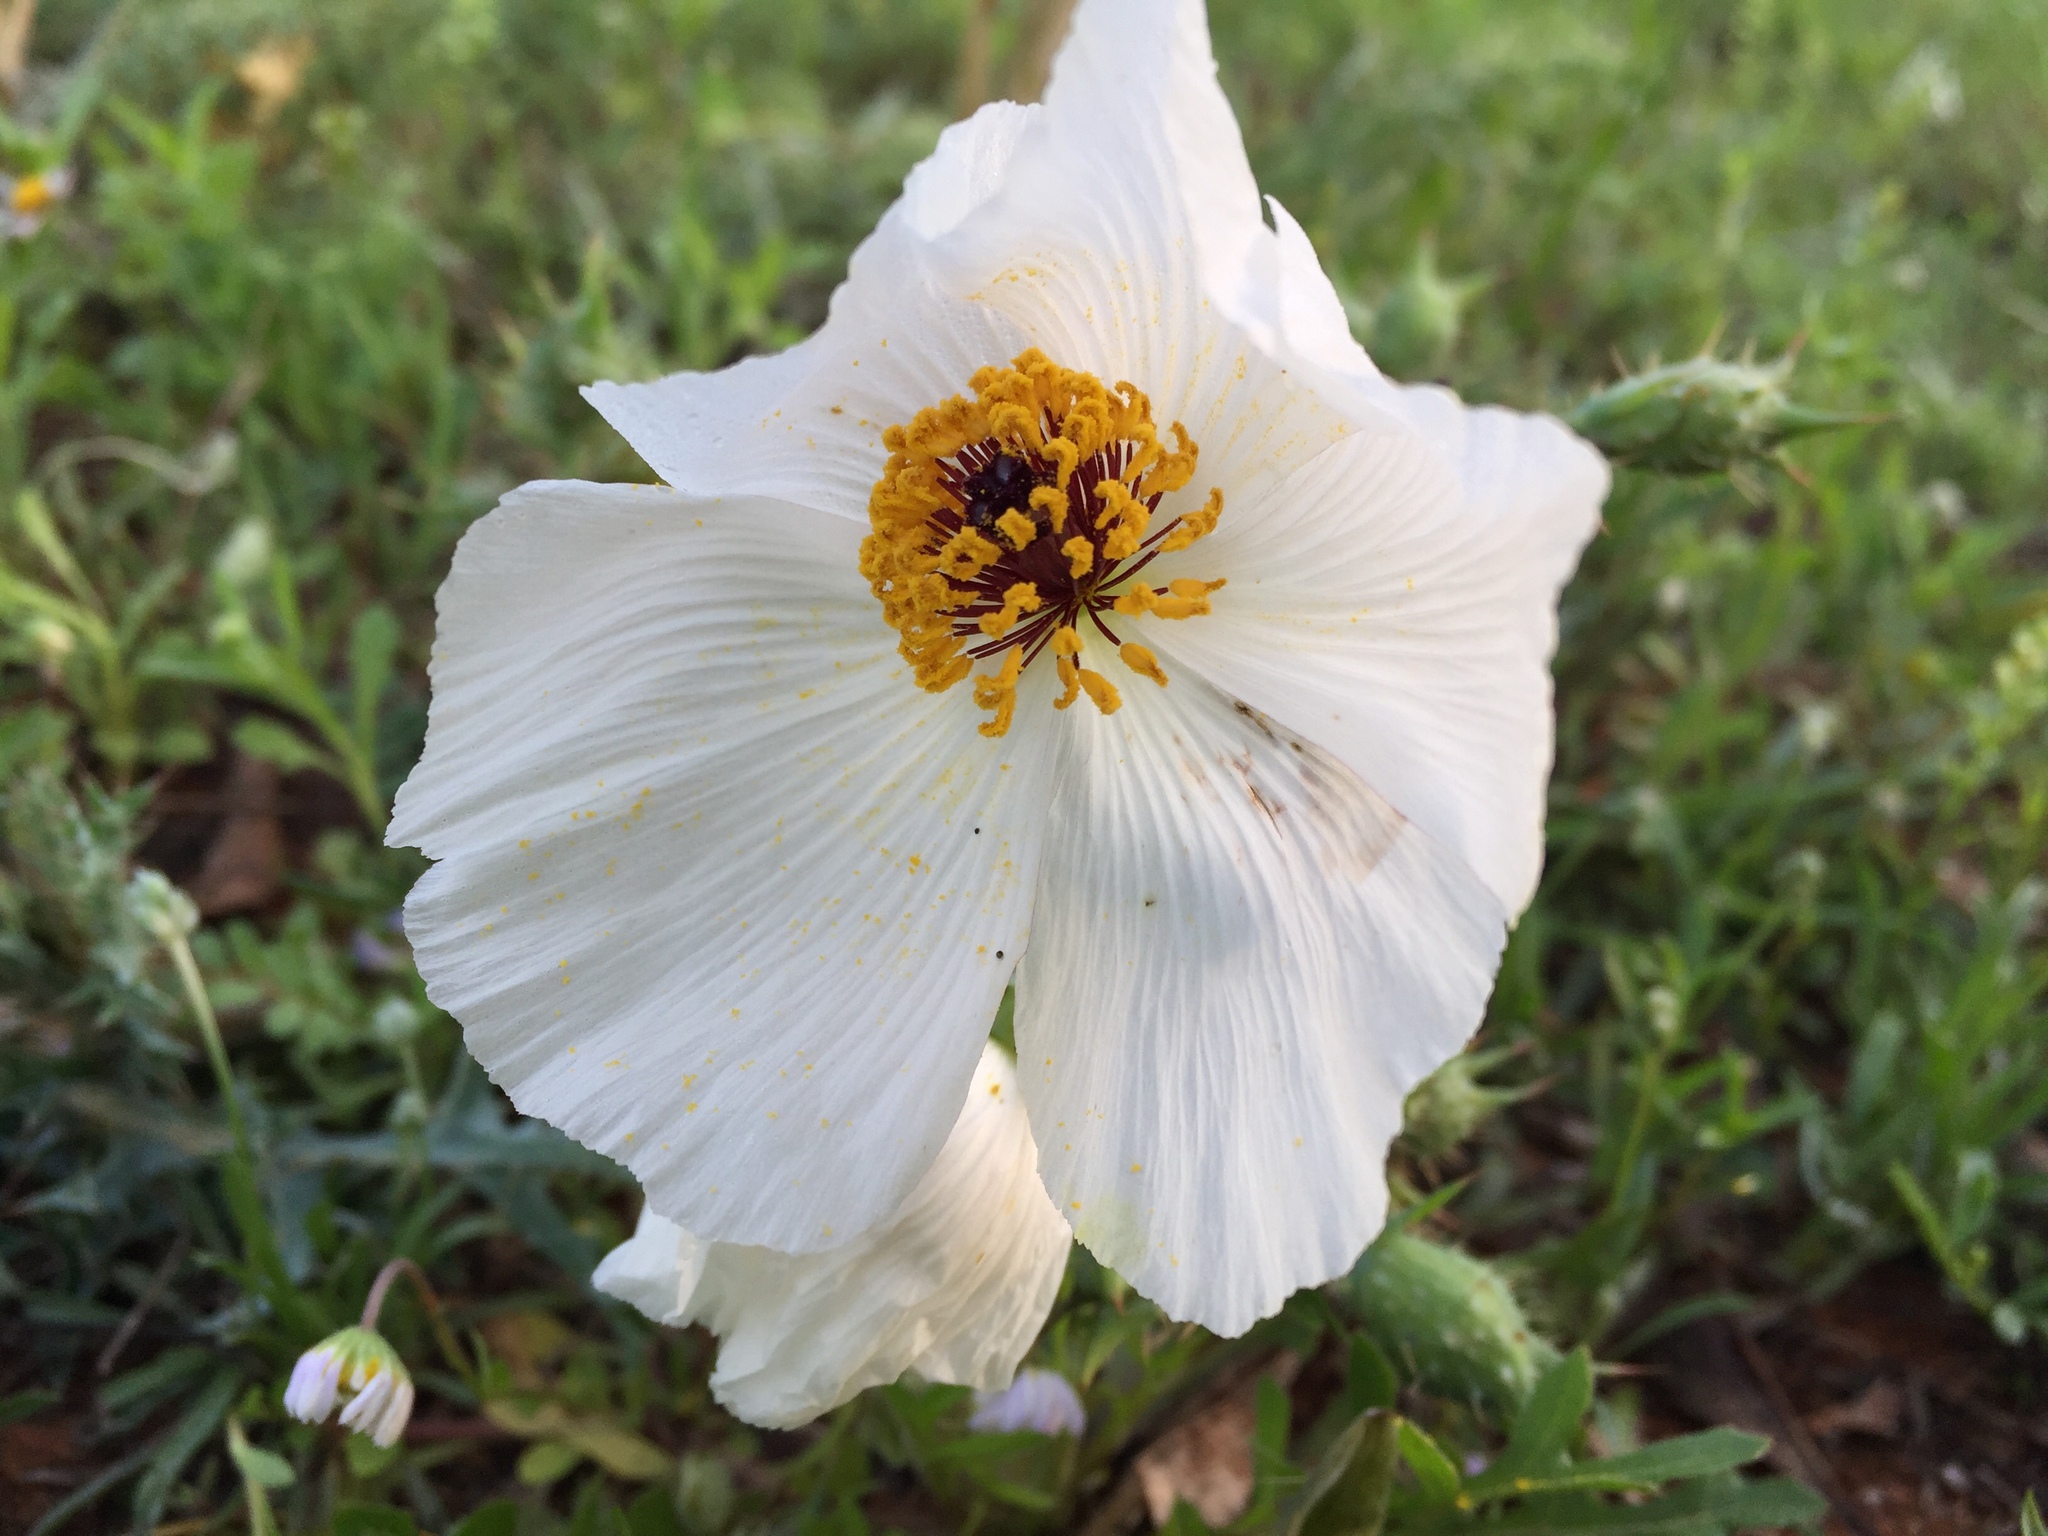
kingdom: Plantae
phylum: Tracheophyta
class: Magnoliopsida
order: Ranunculales
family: Papaveraceae
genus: Argemone
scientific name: Argemone sanguinea
